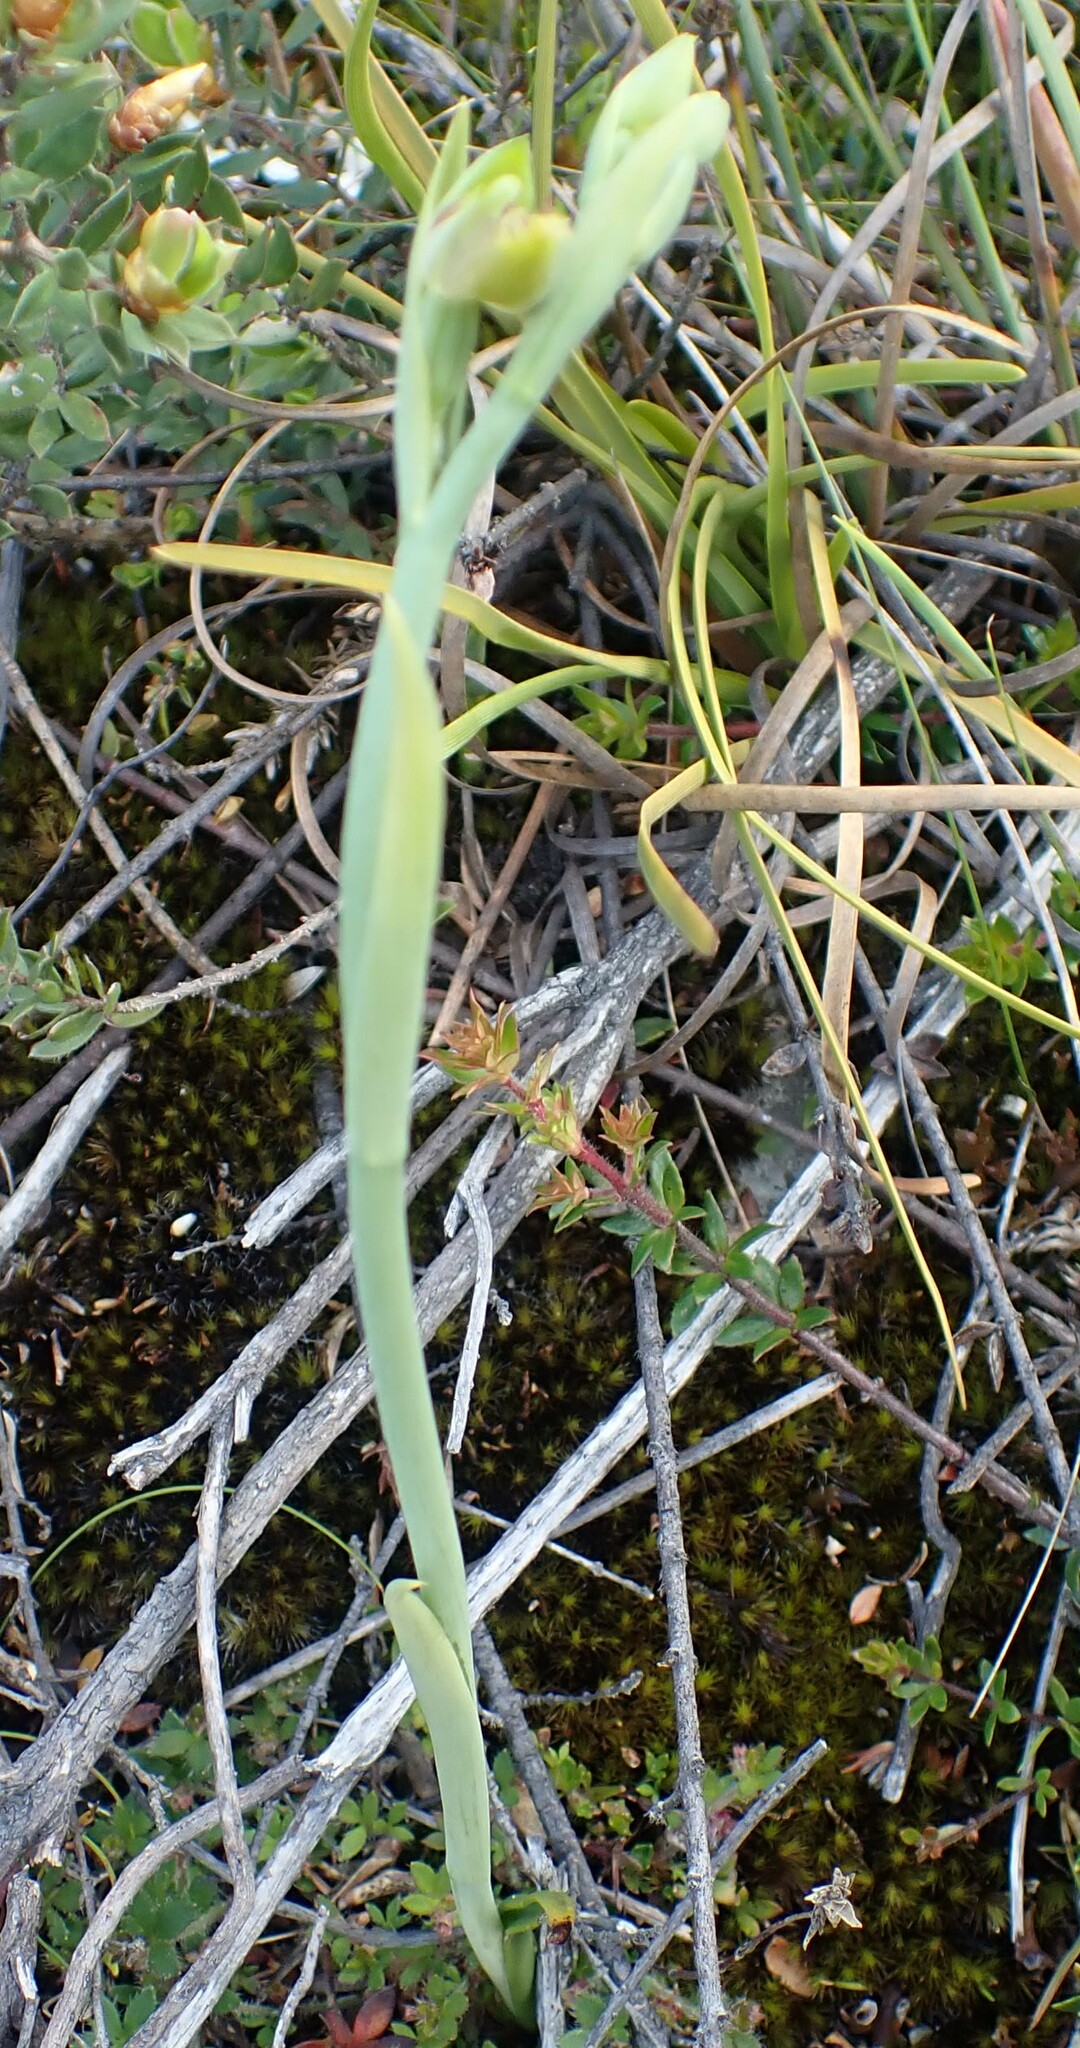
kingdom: Plantae
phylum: Tracheophyta
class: Liliopsida
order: Asparagales
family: Orchidaceae
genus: Calochilus
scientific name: Calochilus herbaceus
